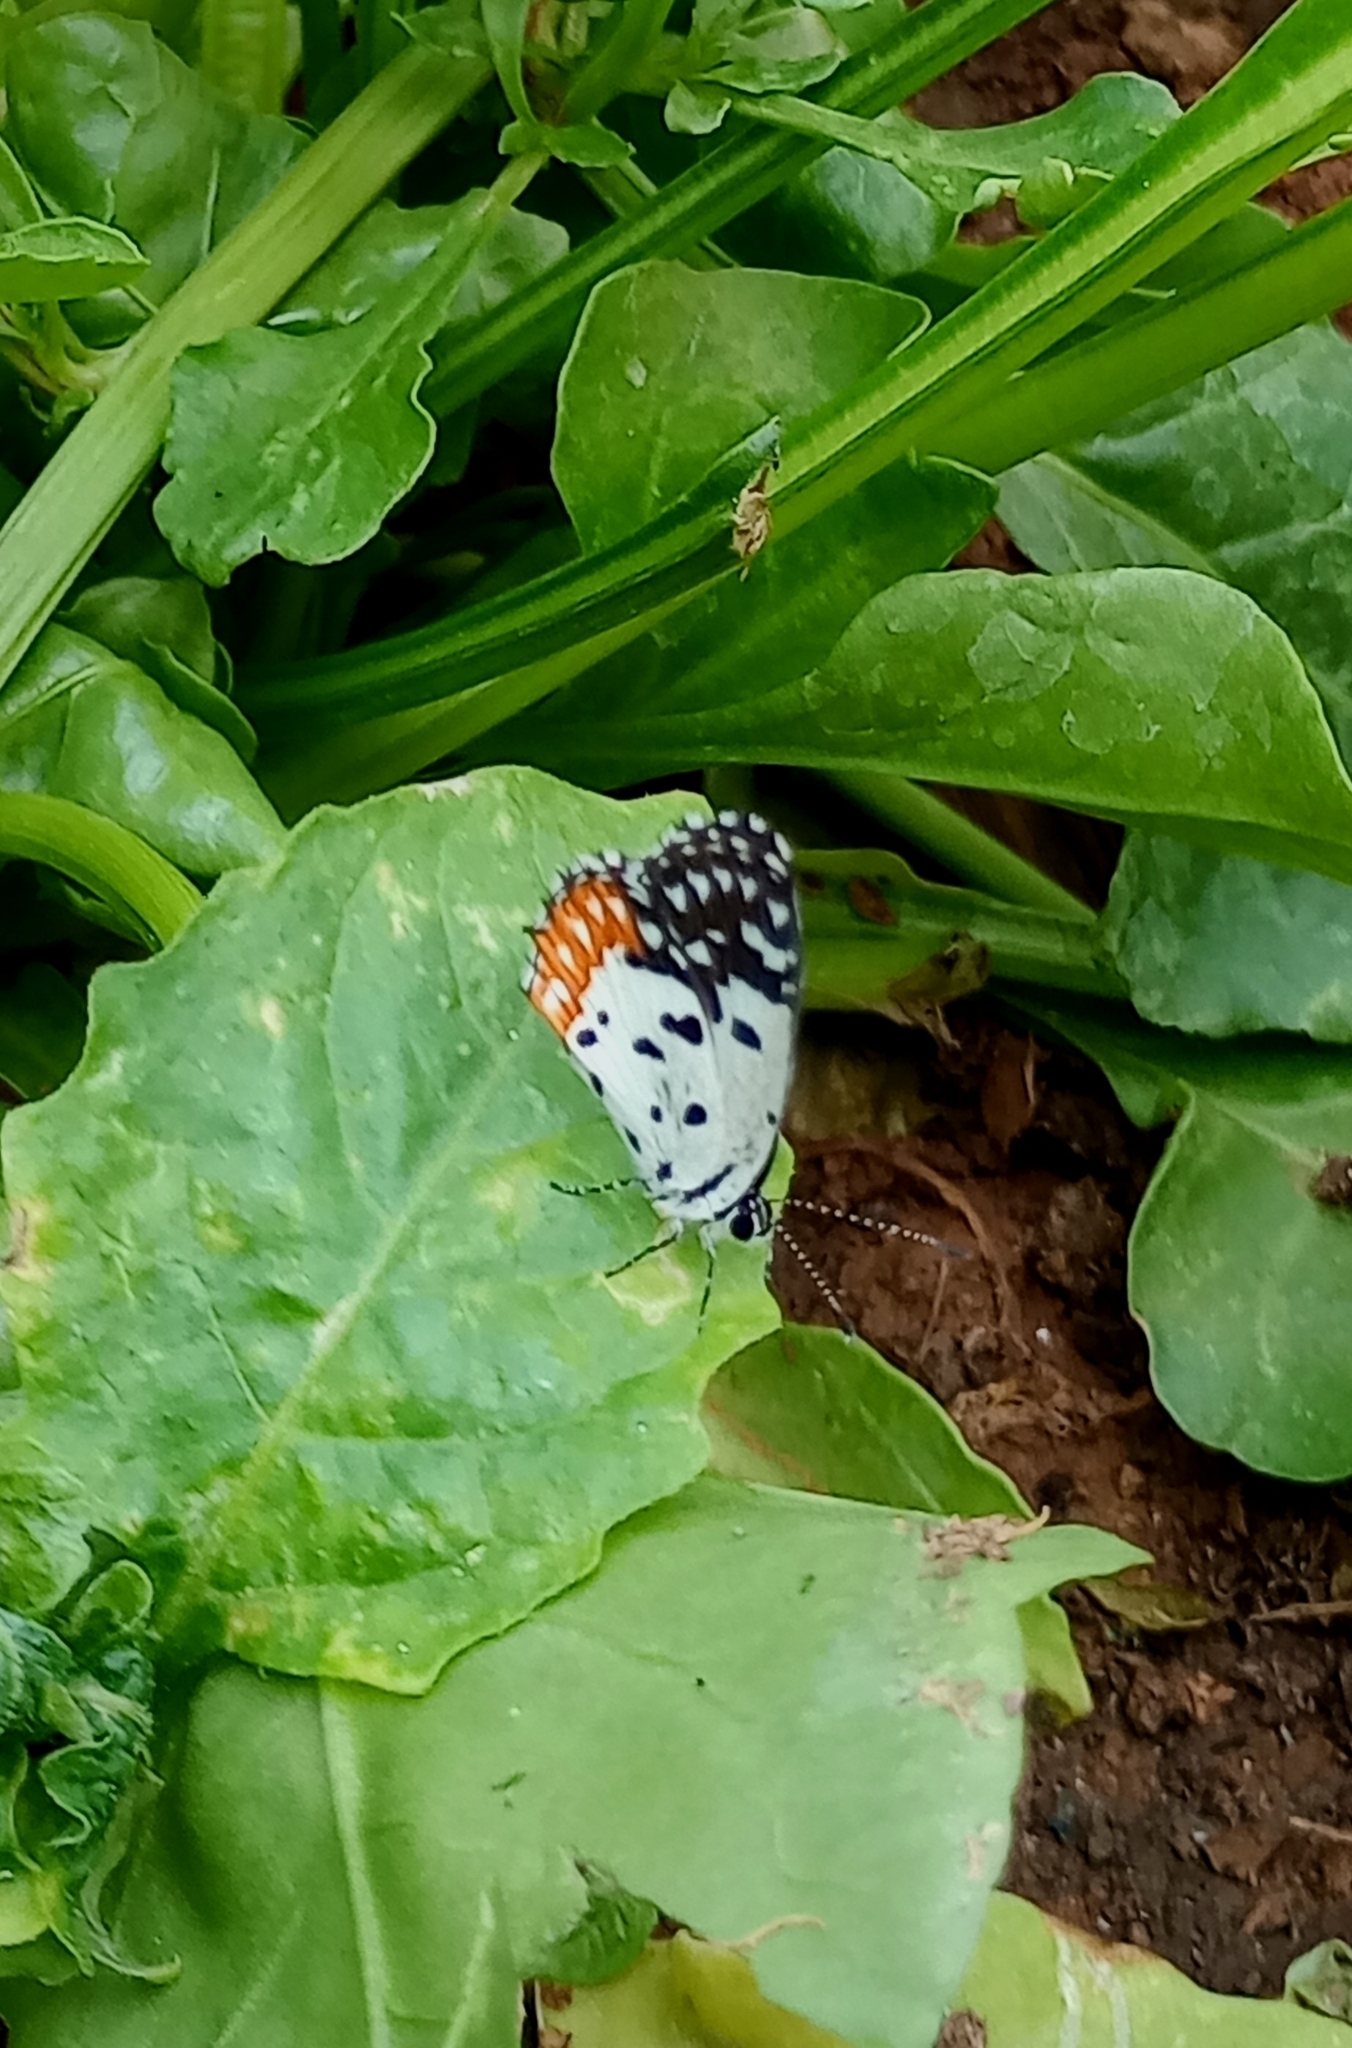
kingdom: Animalia
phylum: Arthropoda
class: Insecta
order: Lepidoptera
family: Lycaenidae
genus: Talicada
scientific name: Talicada nyseus
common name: Red pierrot
